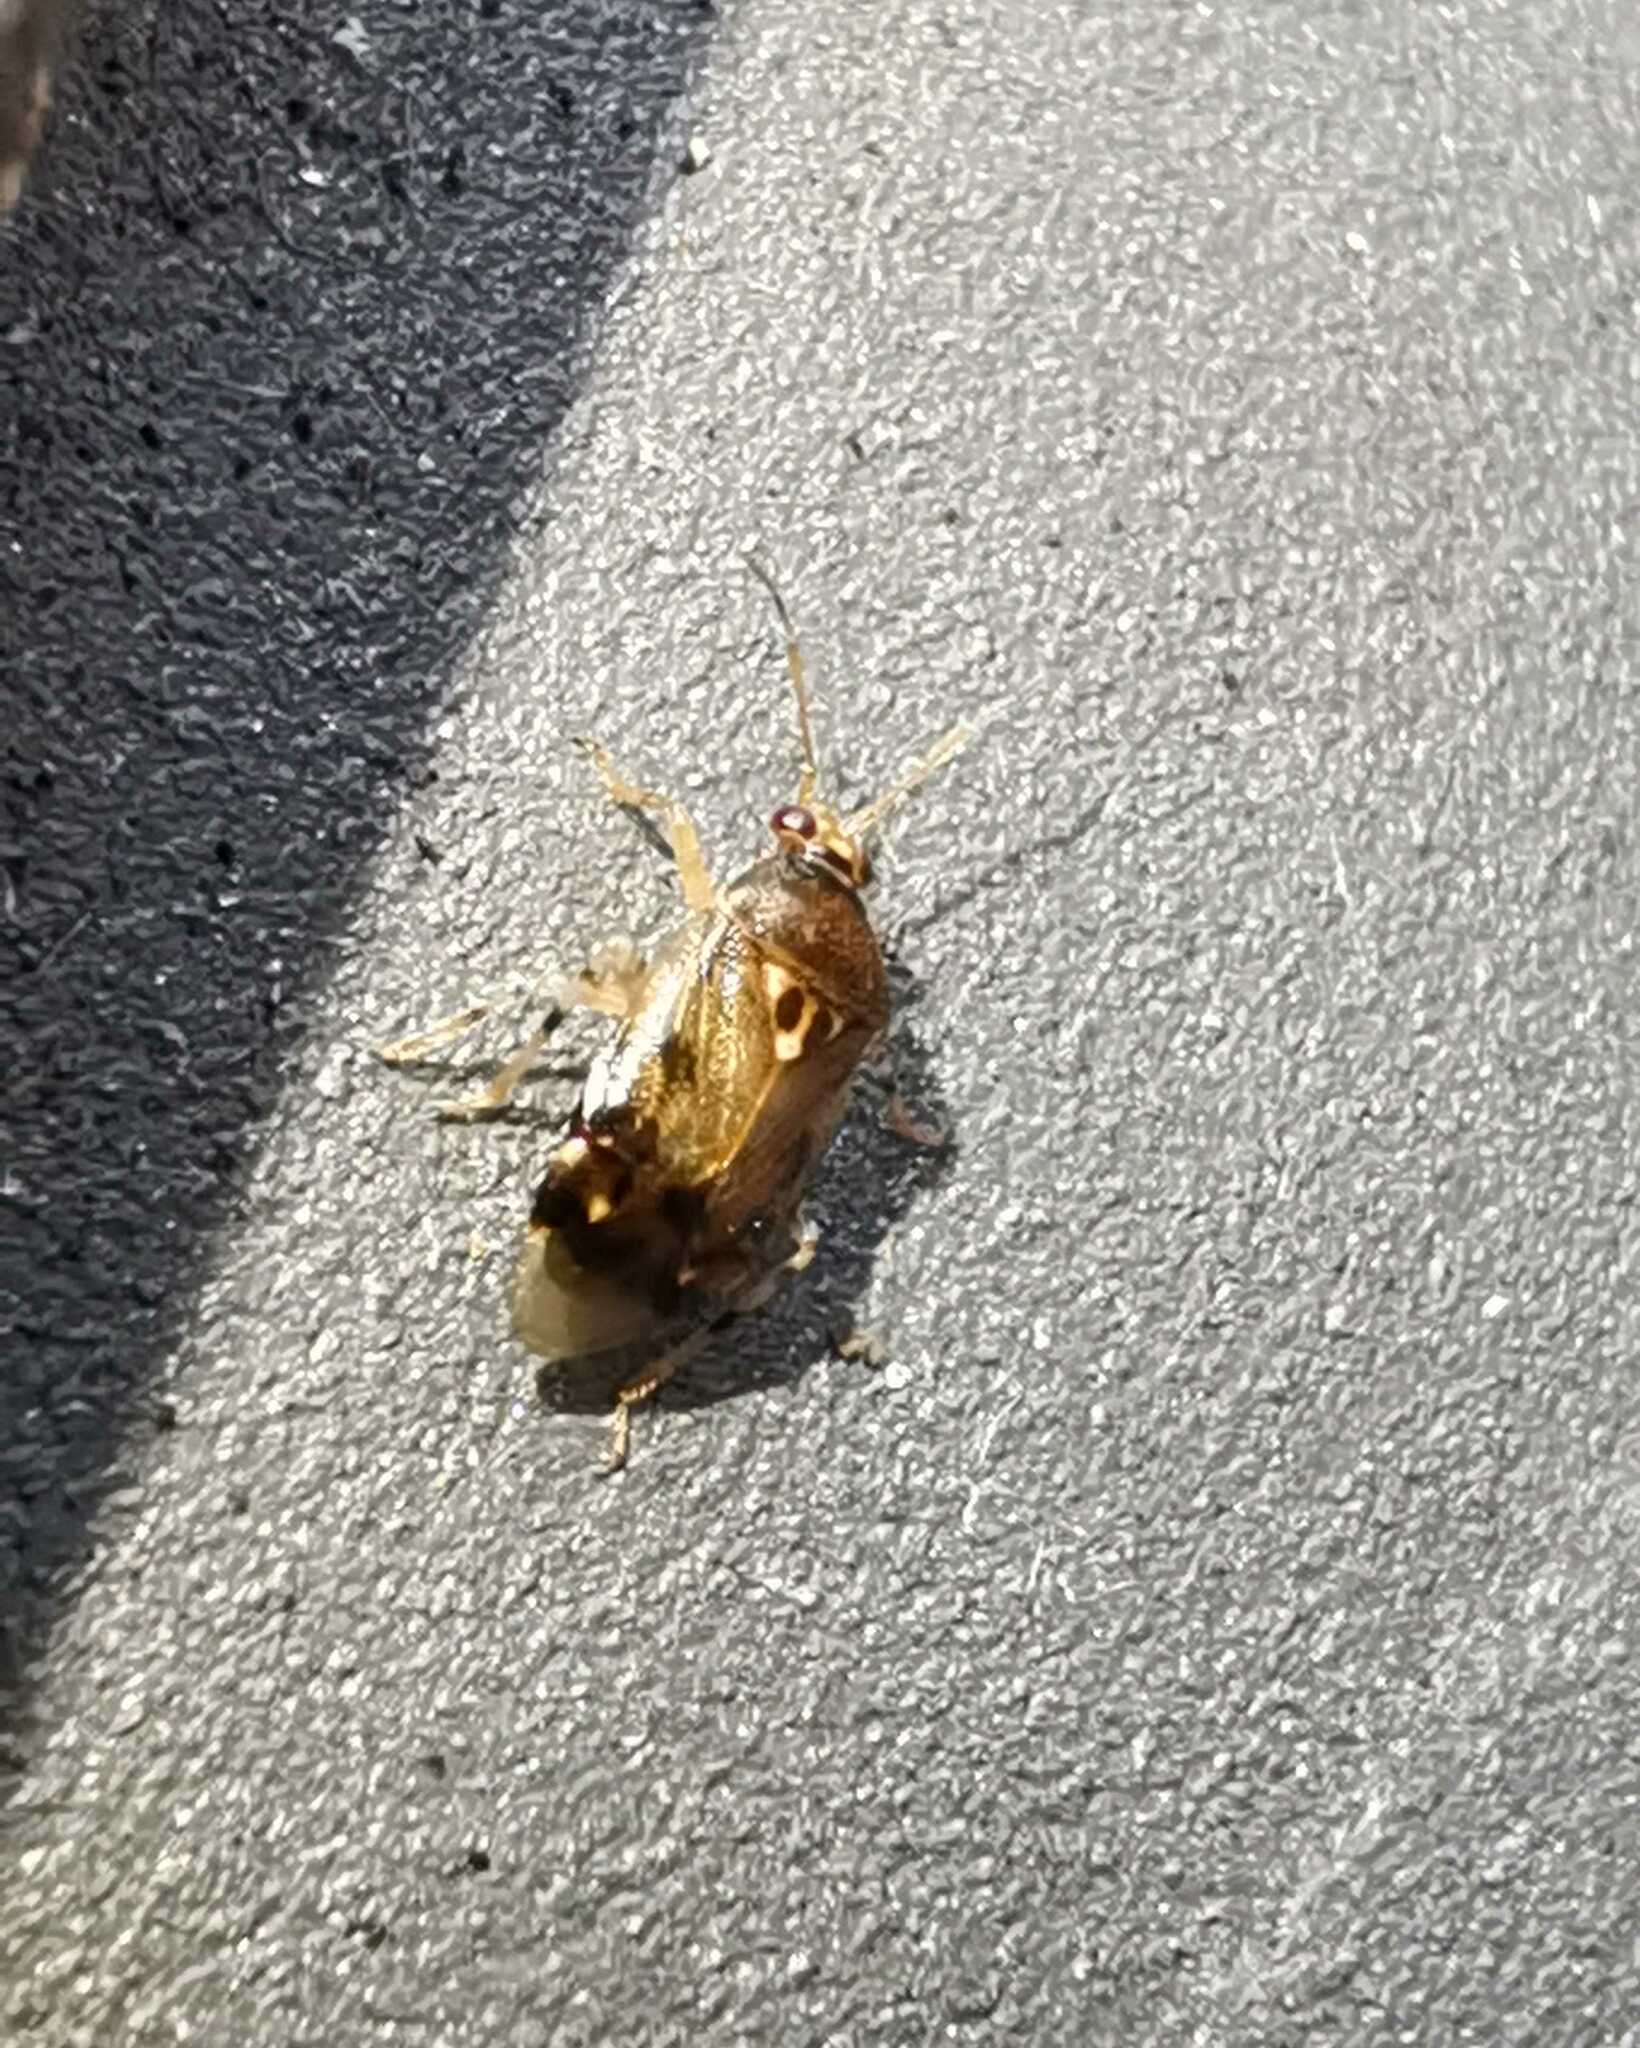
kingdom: Animalia
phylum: Arthropoda
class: Insecta
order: Hemiptera
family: Miridae
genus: Deraeocoris
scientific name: Deraeocoris lutescens
